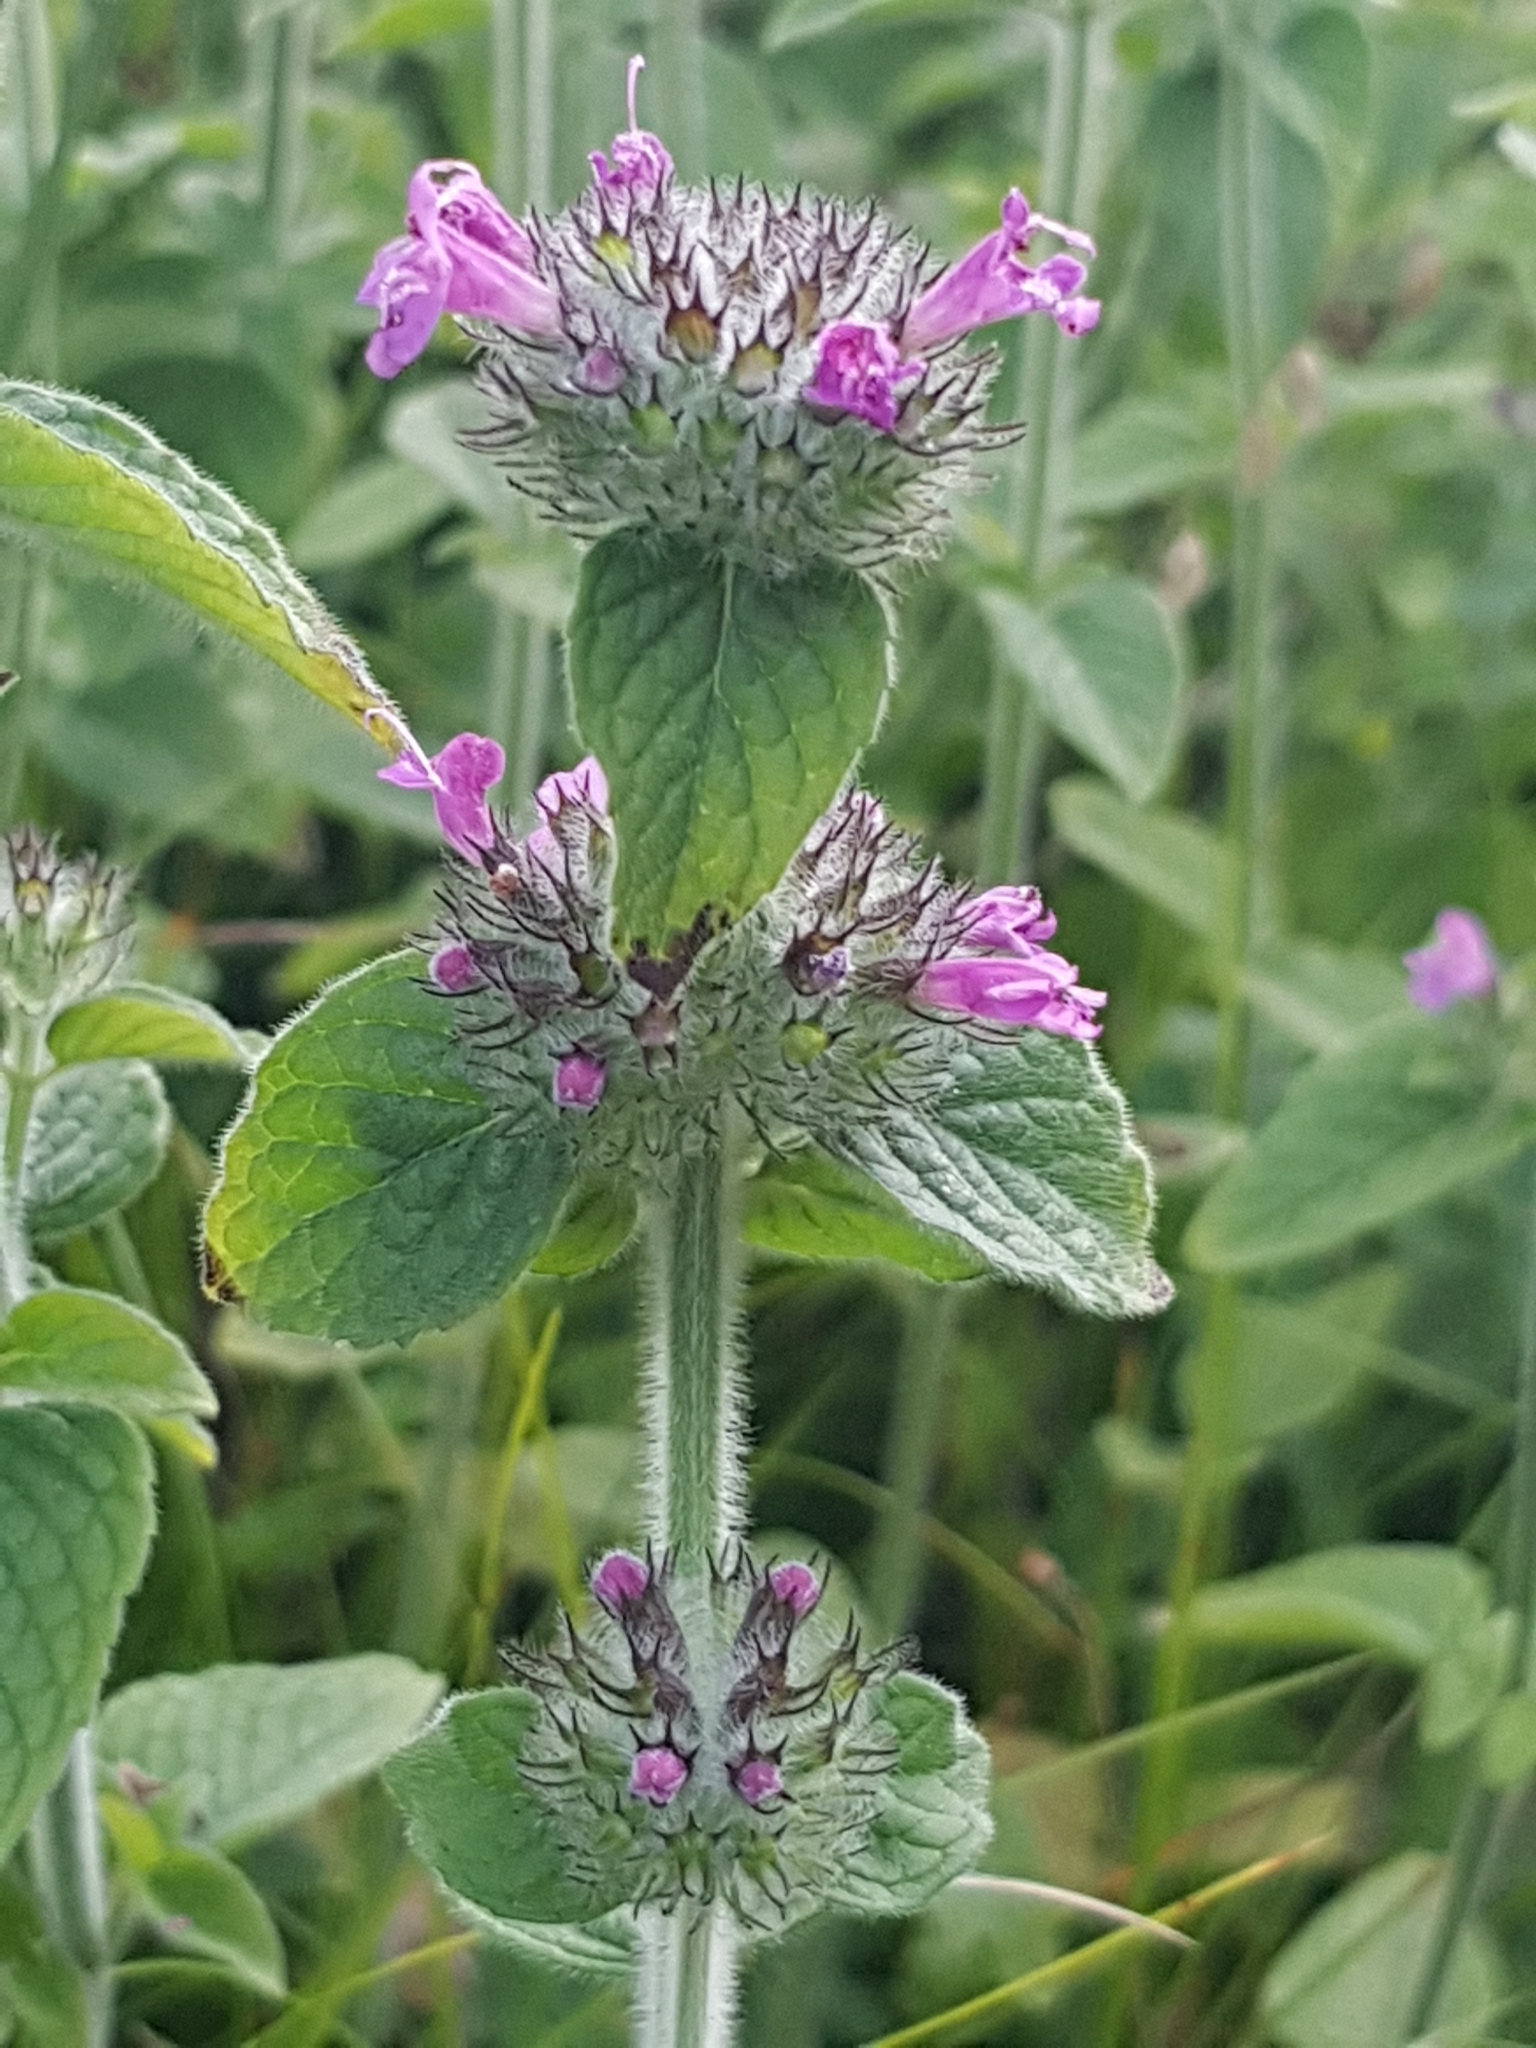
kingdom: Plantae
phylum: Tracheophyta
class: Magnoliopsida
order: Lamiales
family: Lamiaceae
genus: Clinopodium
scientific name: Clinopodium vulgare
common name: Wild basil
